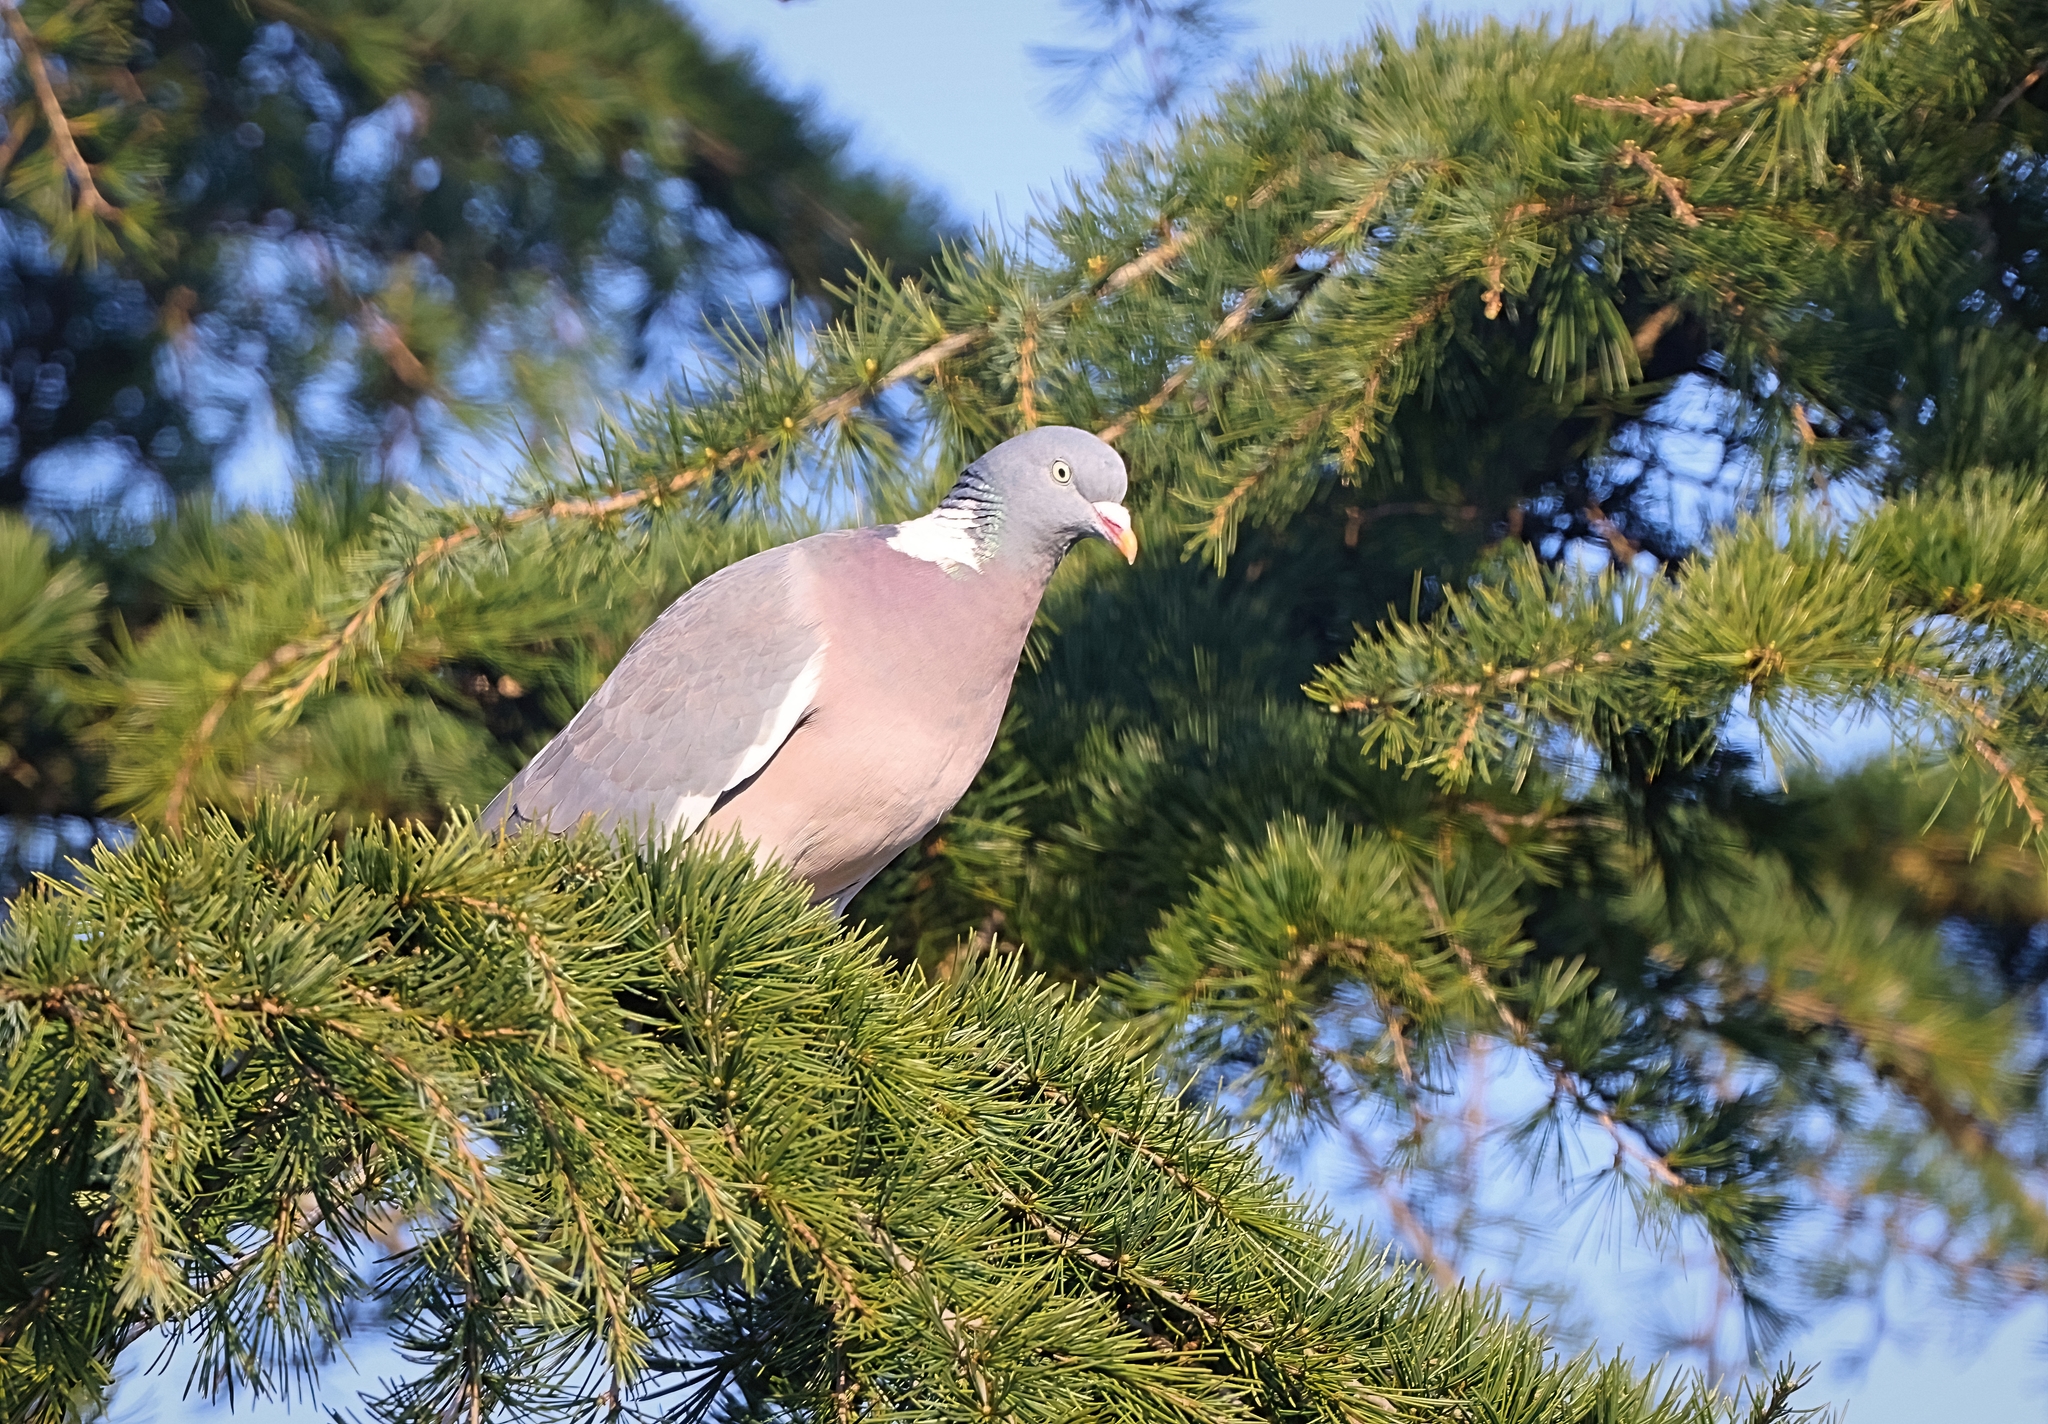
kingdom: Animalia
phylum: Chordata
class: Aves
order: Columbiformes
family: Columbidae
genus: Columba
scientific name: Columba palumbus
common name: Common wood pigeon
